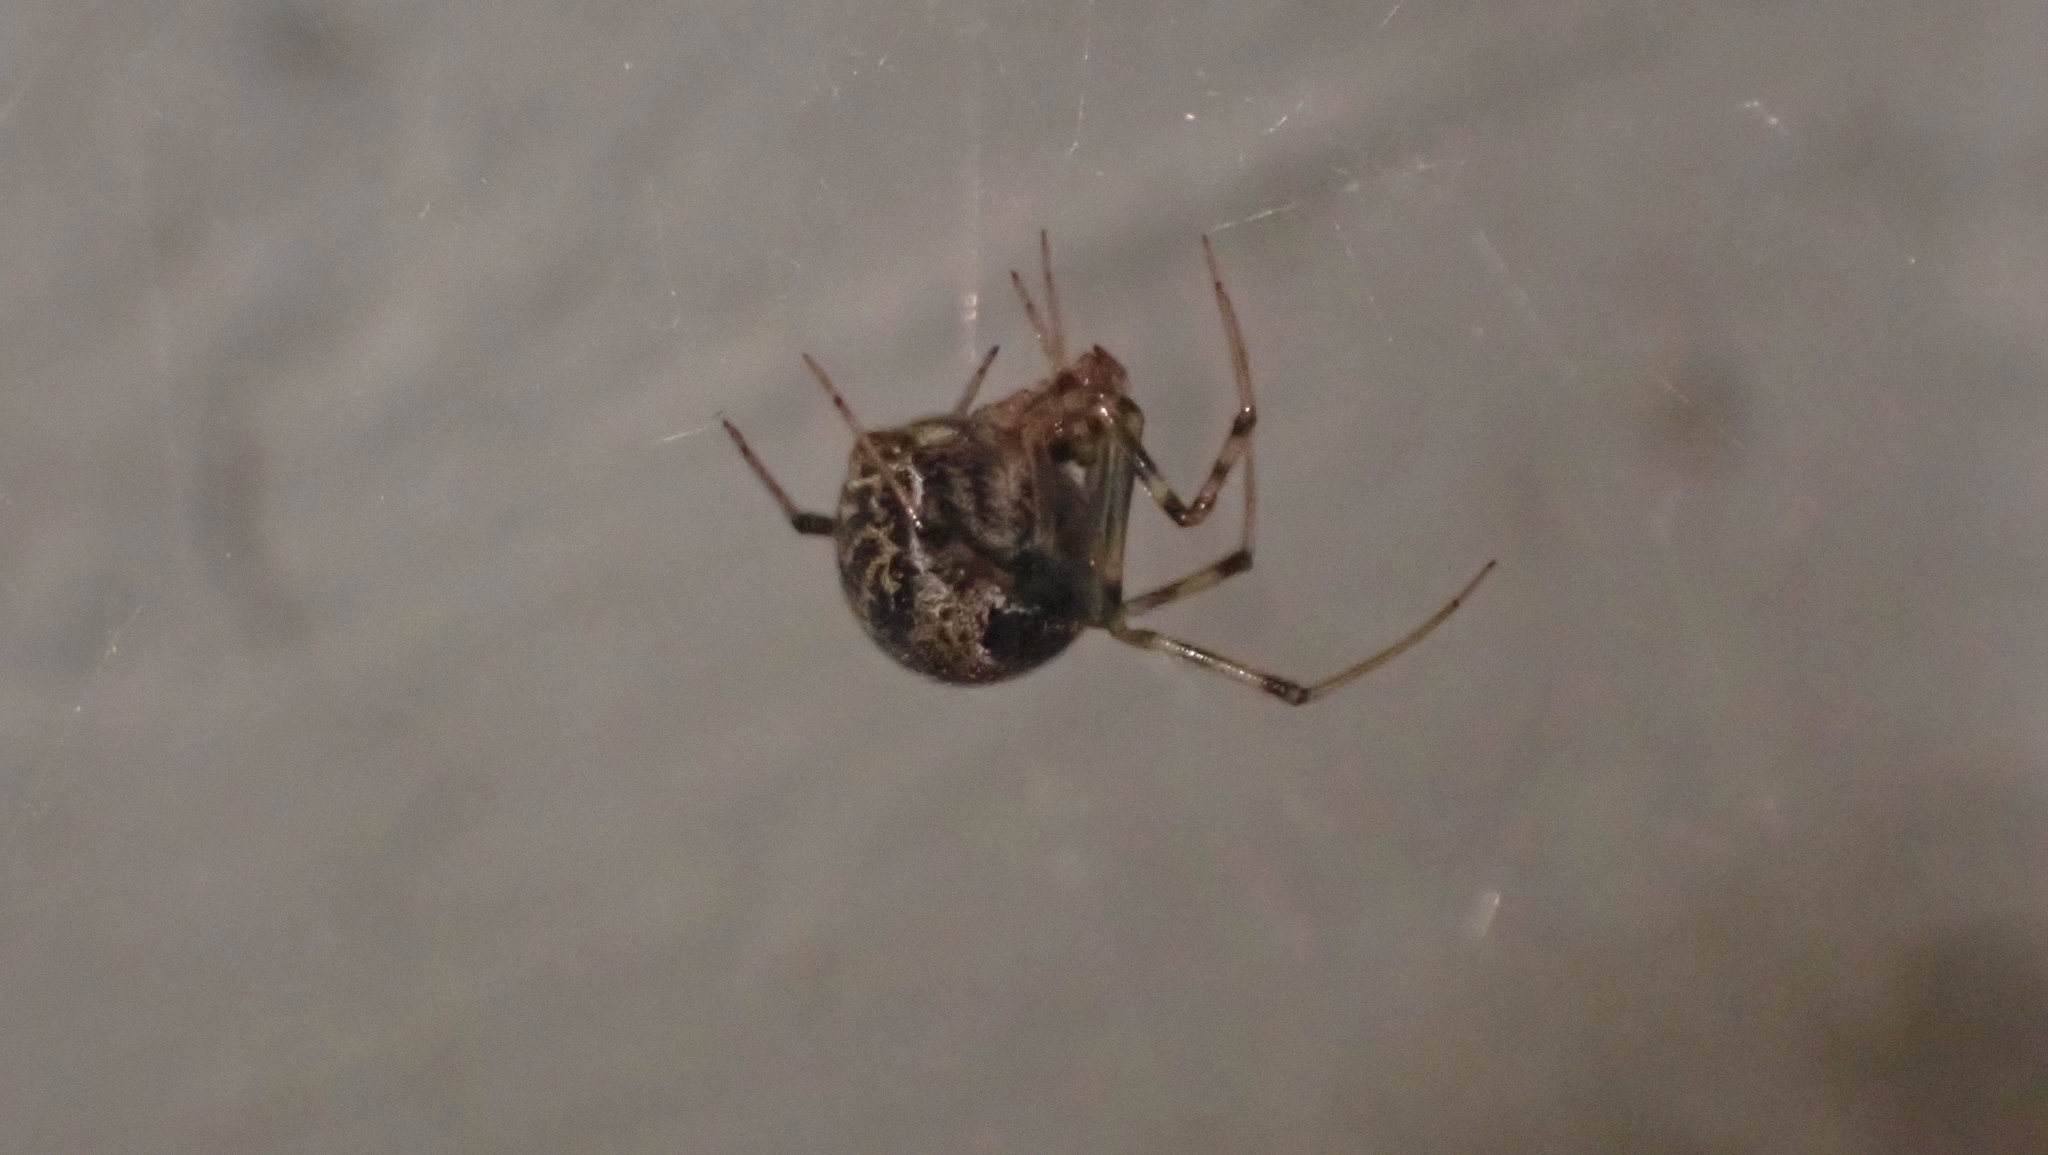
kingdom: Animalia
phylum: Arthropoda
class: Arachnida
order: Araneae
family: Theridiidae
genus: Parasteatoda
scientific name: Parasteatoda tepidariorum
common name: Common house spider
